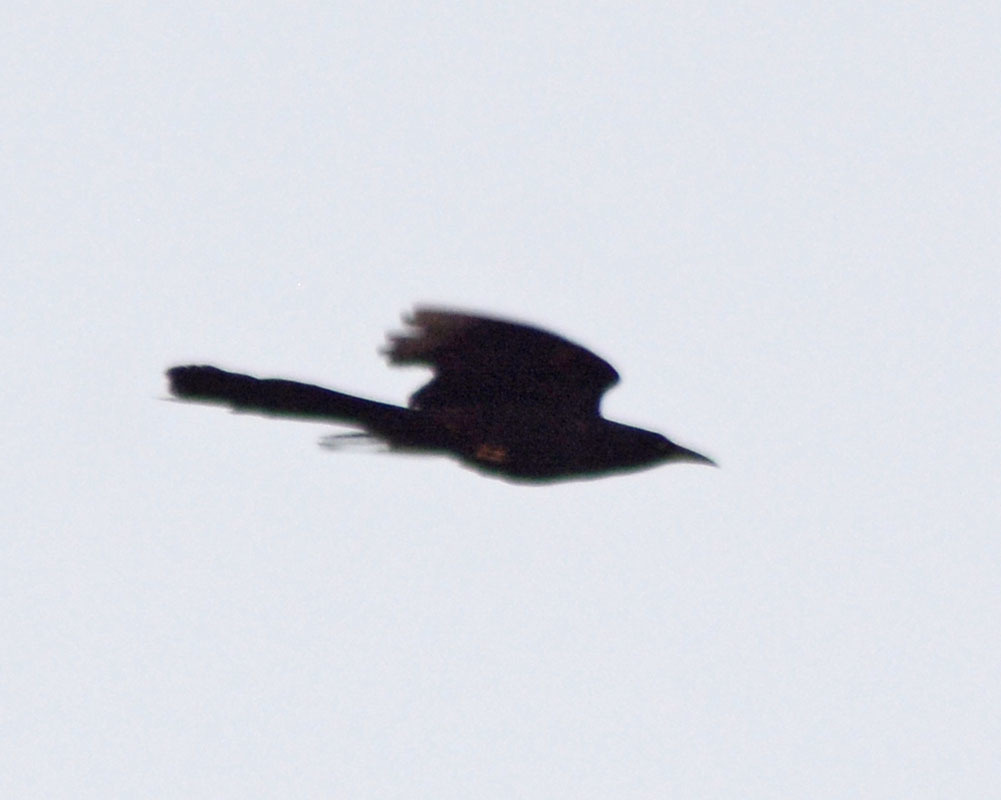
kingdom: Animalia
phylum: Chordata
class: Aves
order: Passeriformes
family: Icteridae
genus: Quiscalus
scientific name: Quiscalus mexicanus
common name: Great-tailed grackle
